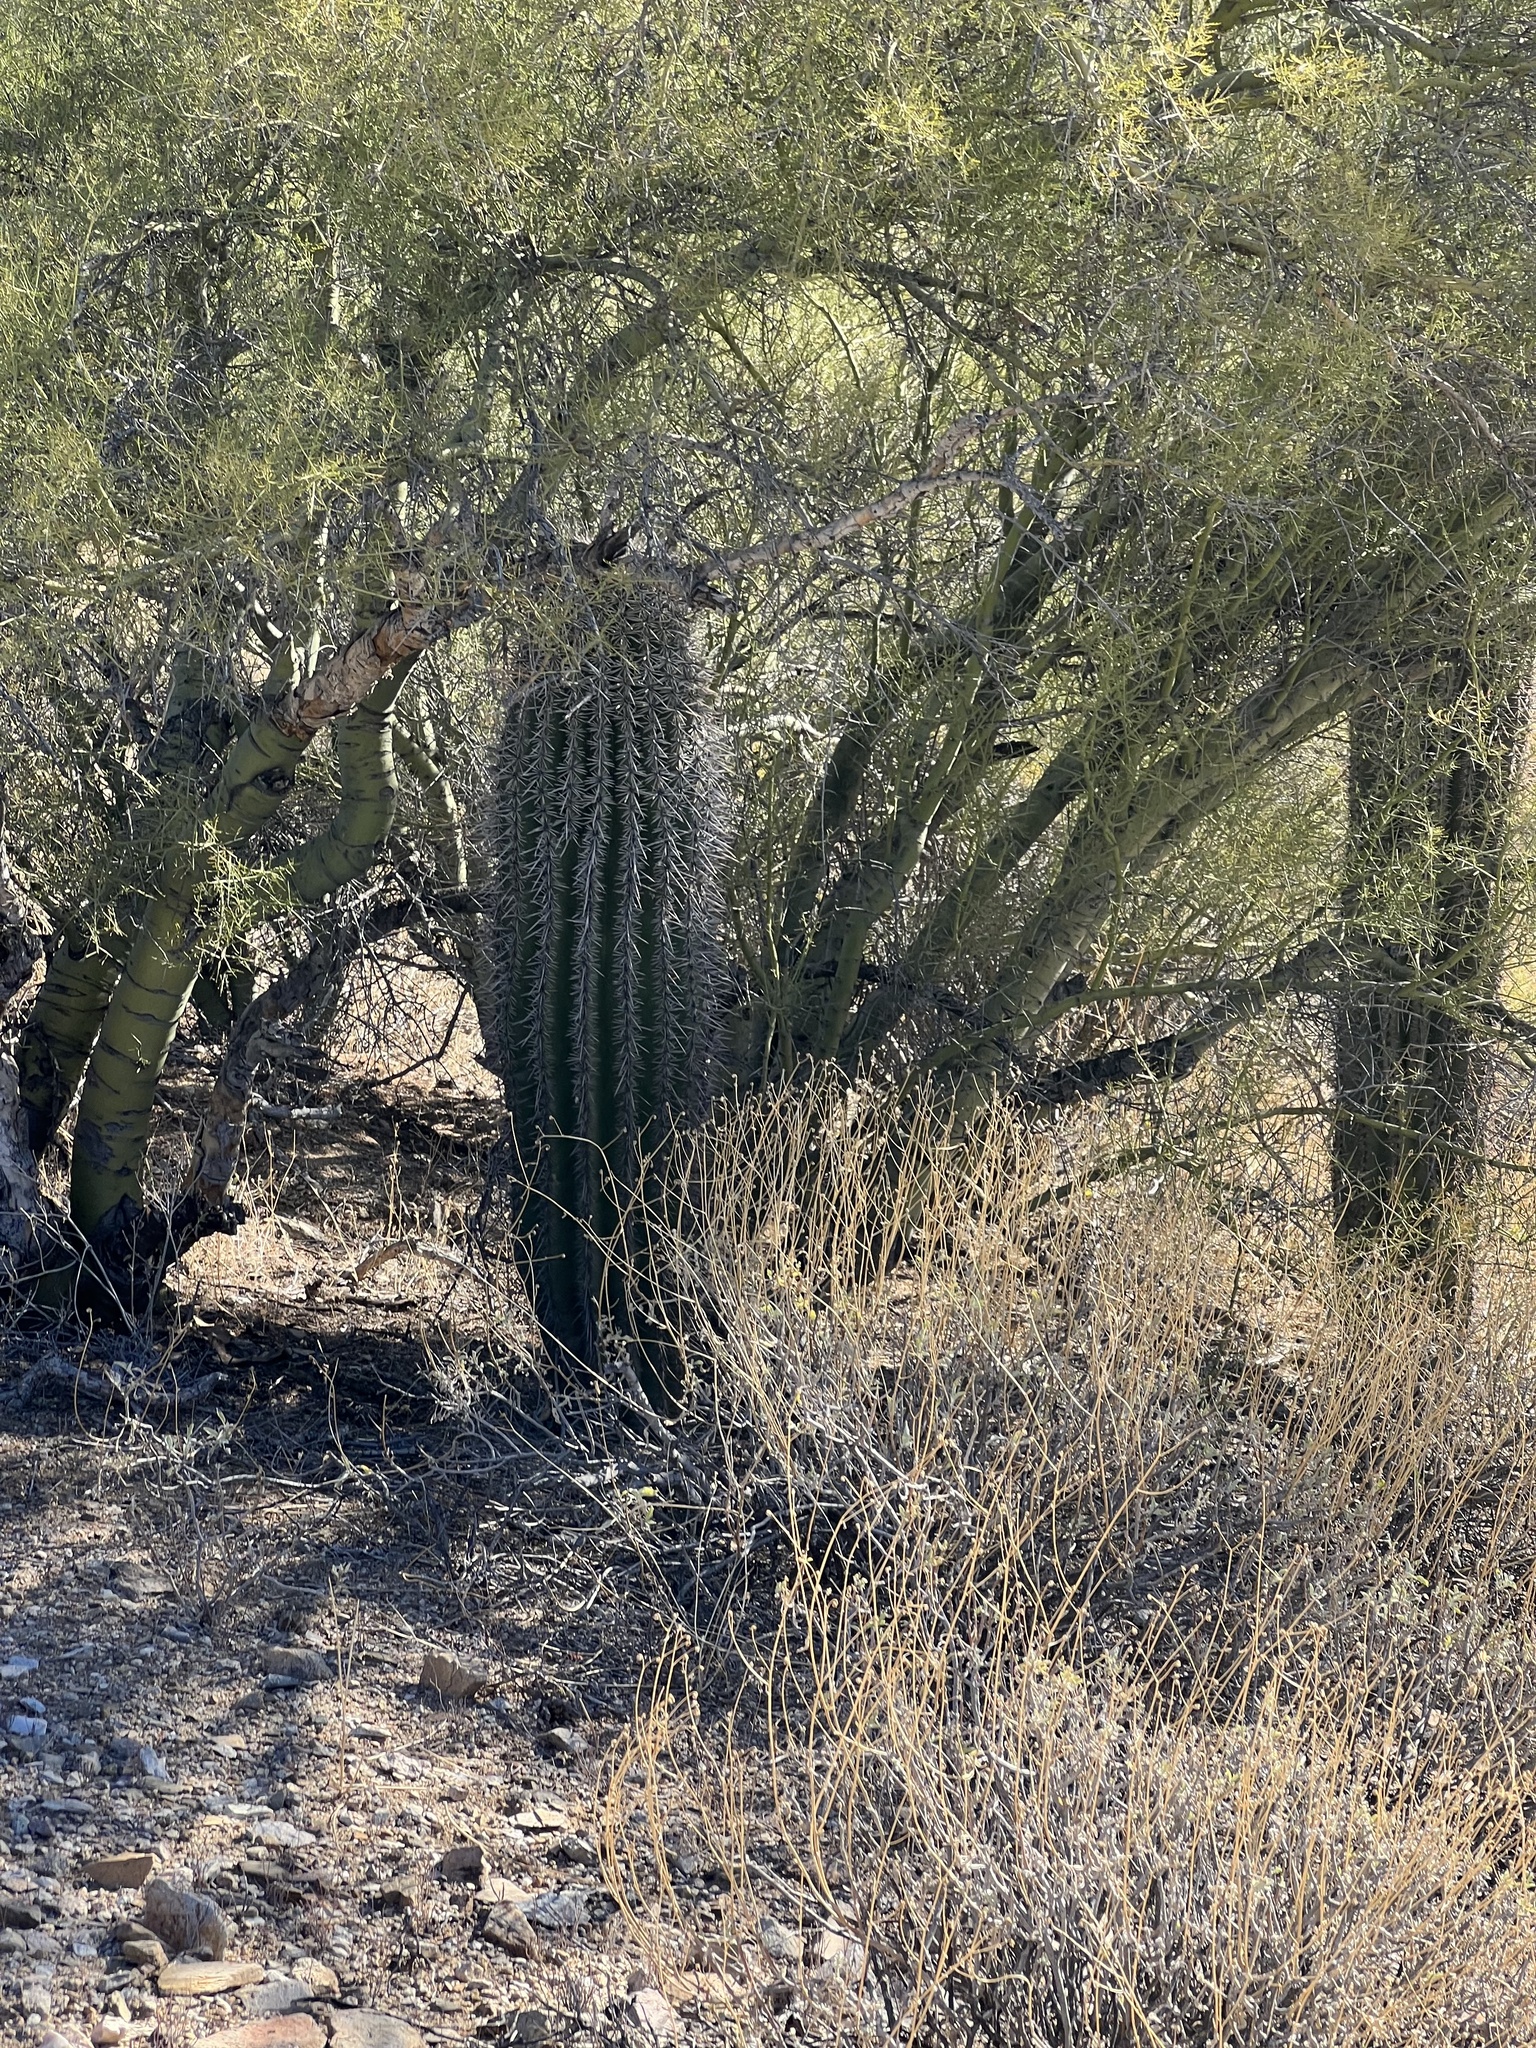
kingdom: Plantae
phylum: Tracheophyta
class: Magnoliopsida
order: Caryophyllales
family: Cactaceae
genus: Carnegiea
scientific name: Carnegiea gigantea
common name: Saguaro
